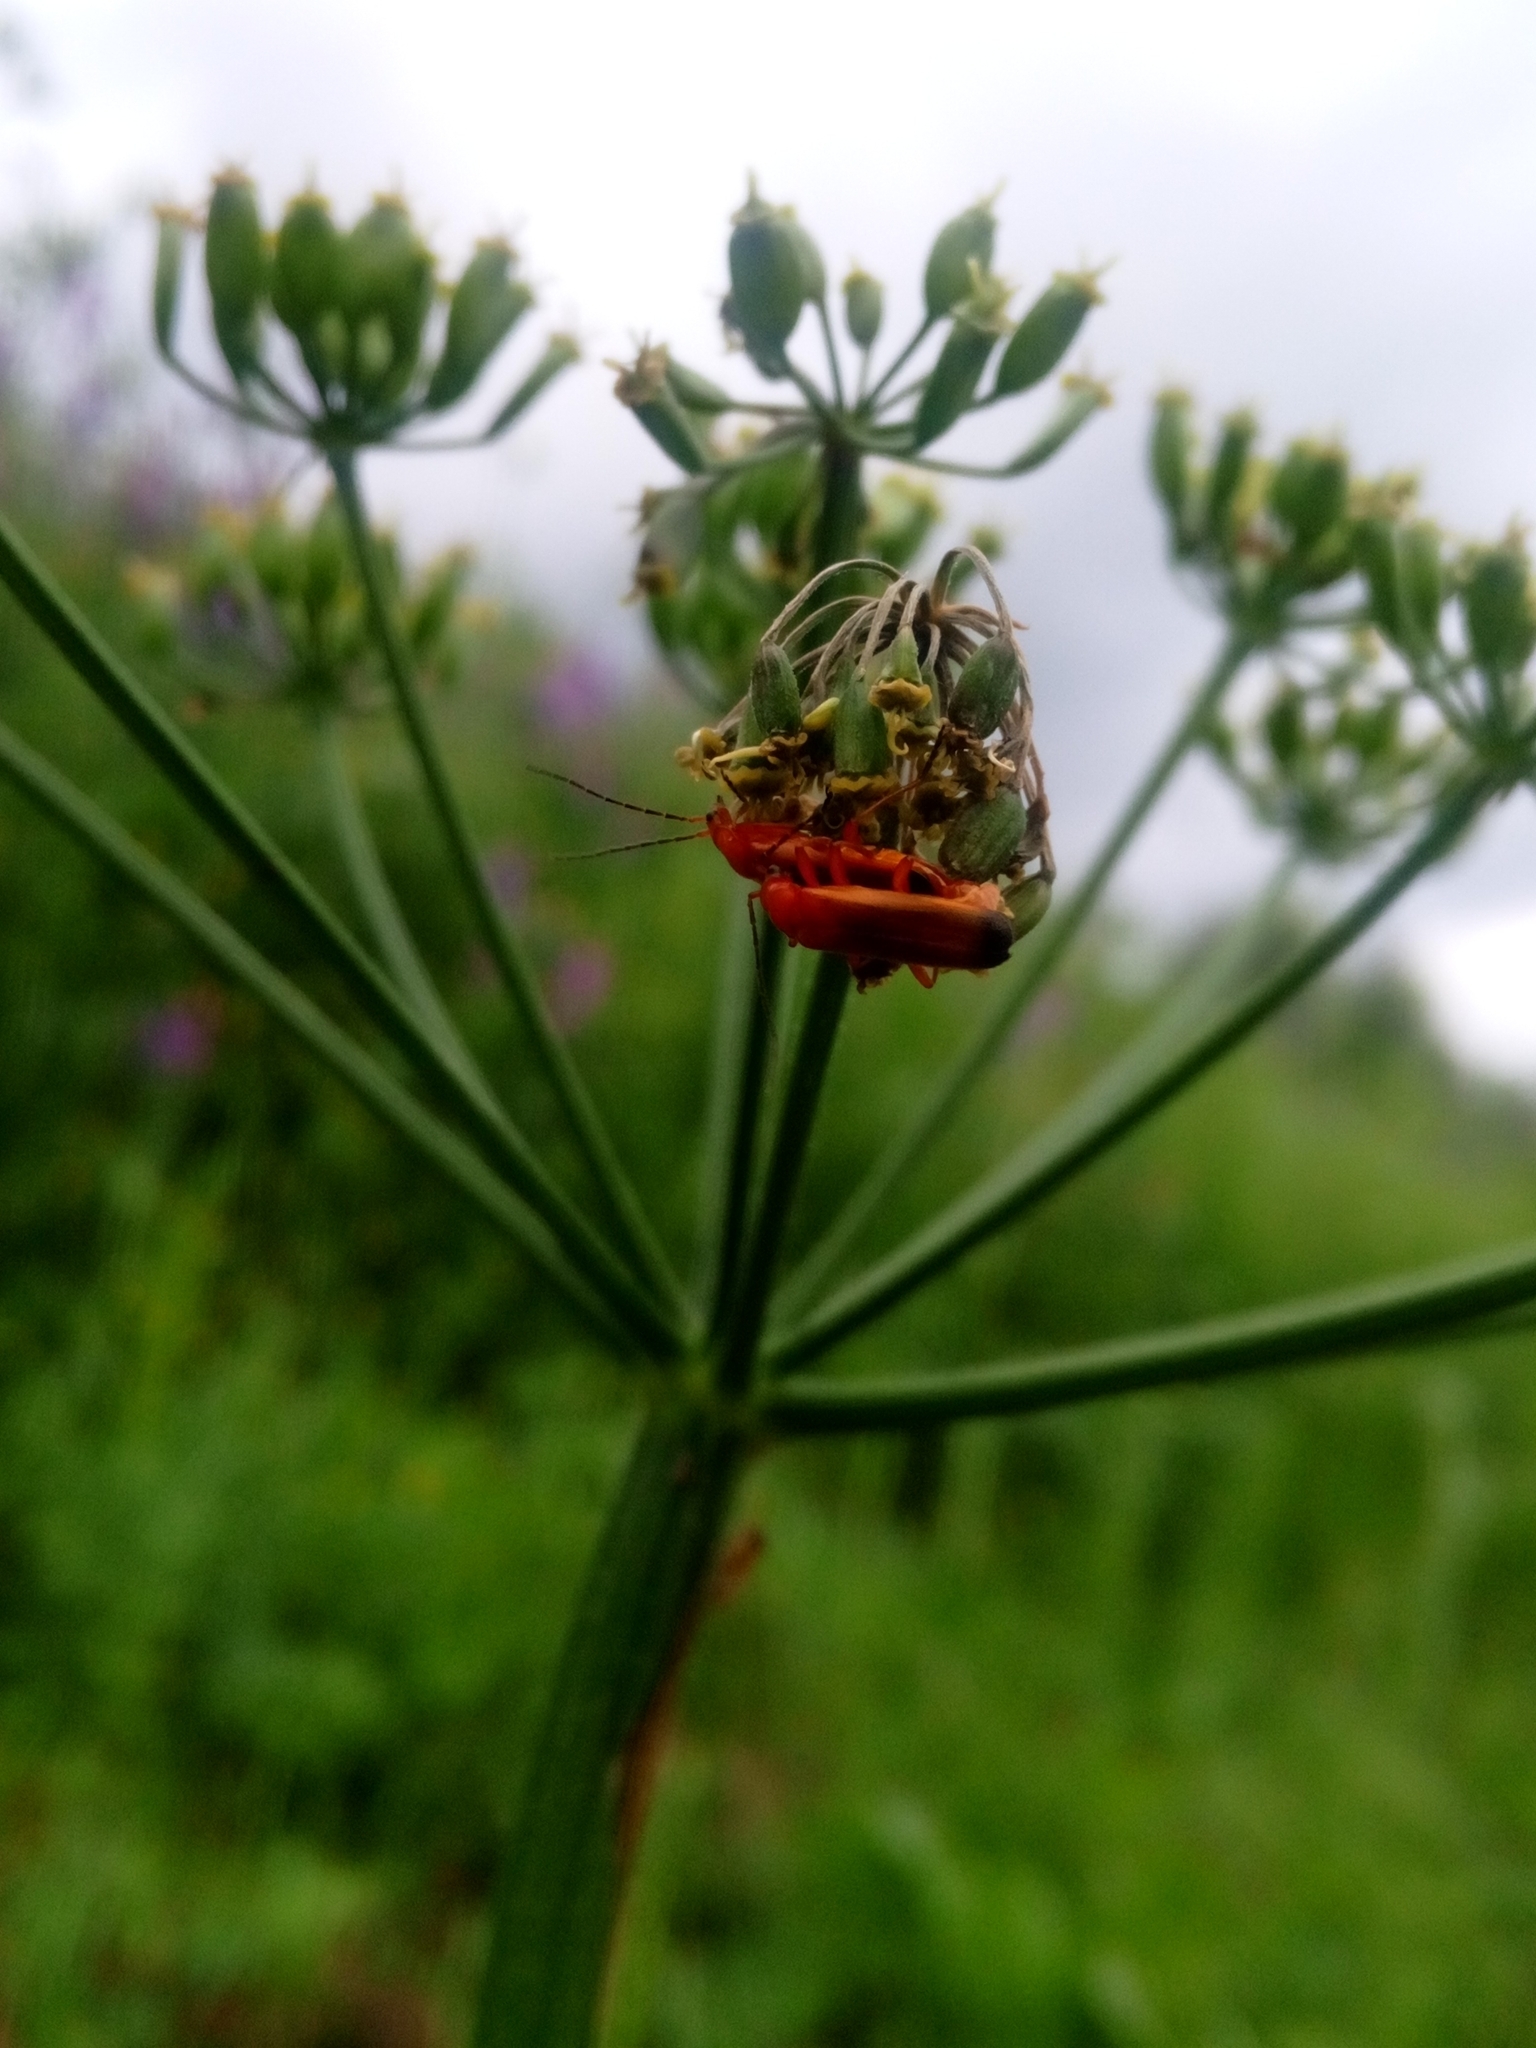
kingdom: Animalia
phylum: Arthropoda
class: Insecta
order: Coleoptera
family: Cantharidae
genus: Rhagonycha
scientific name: Rhagonycha fulva
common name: Common red soldier beetle
